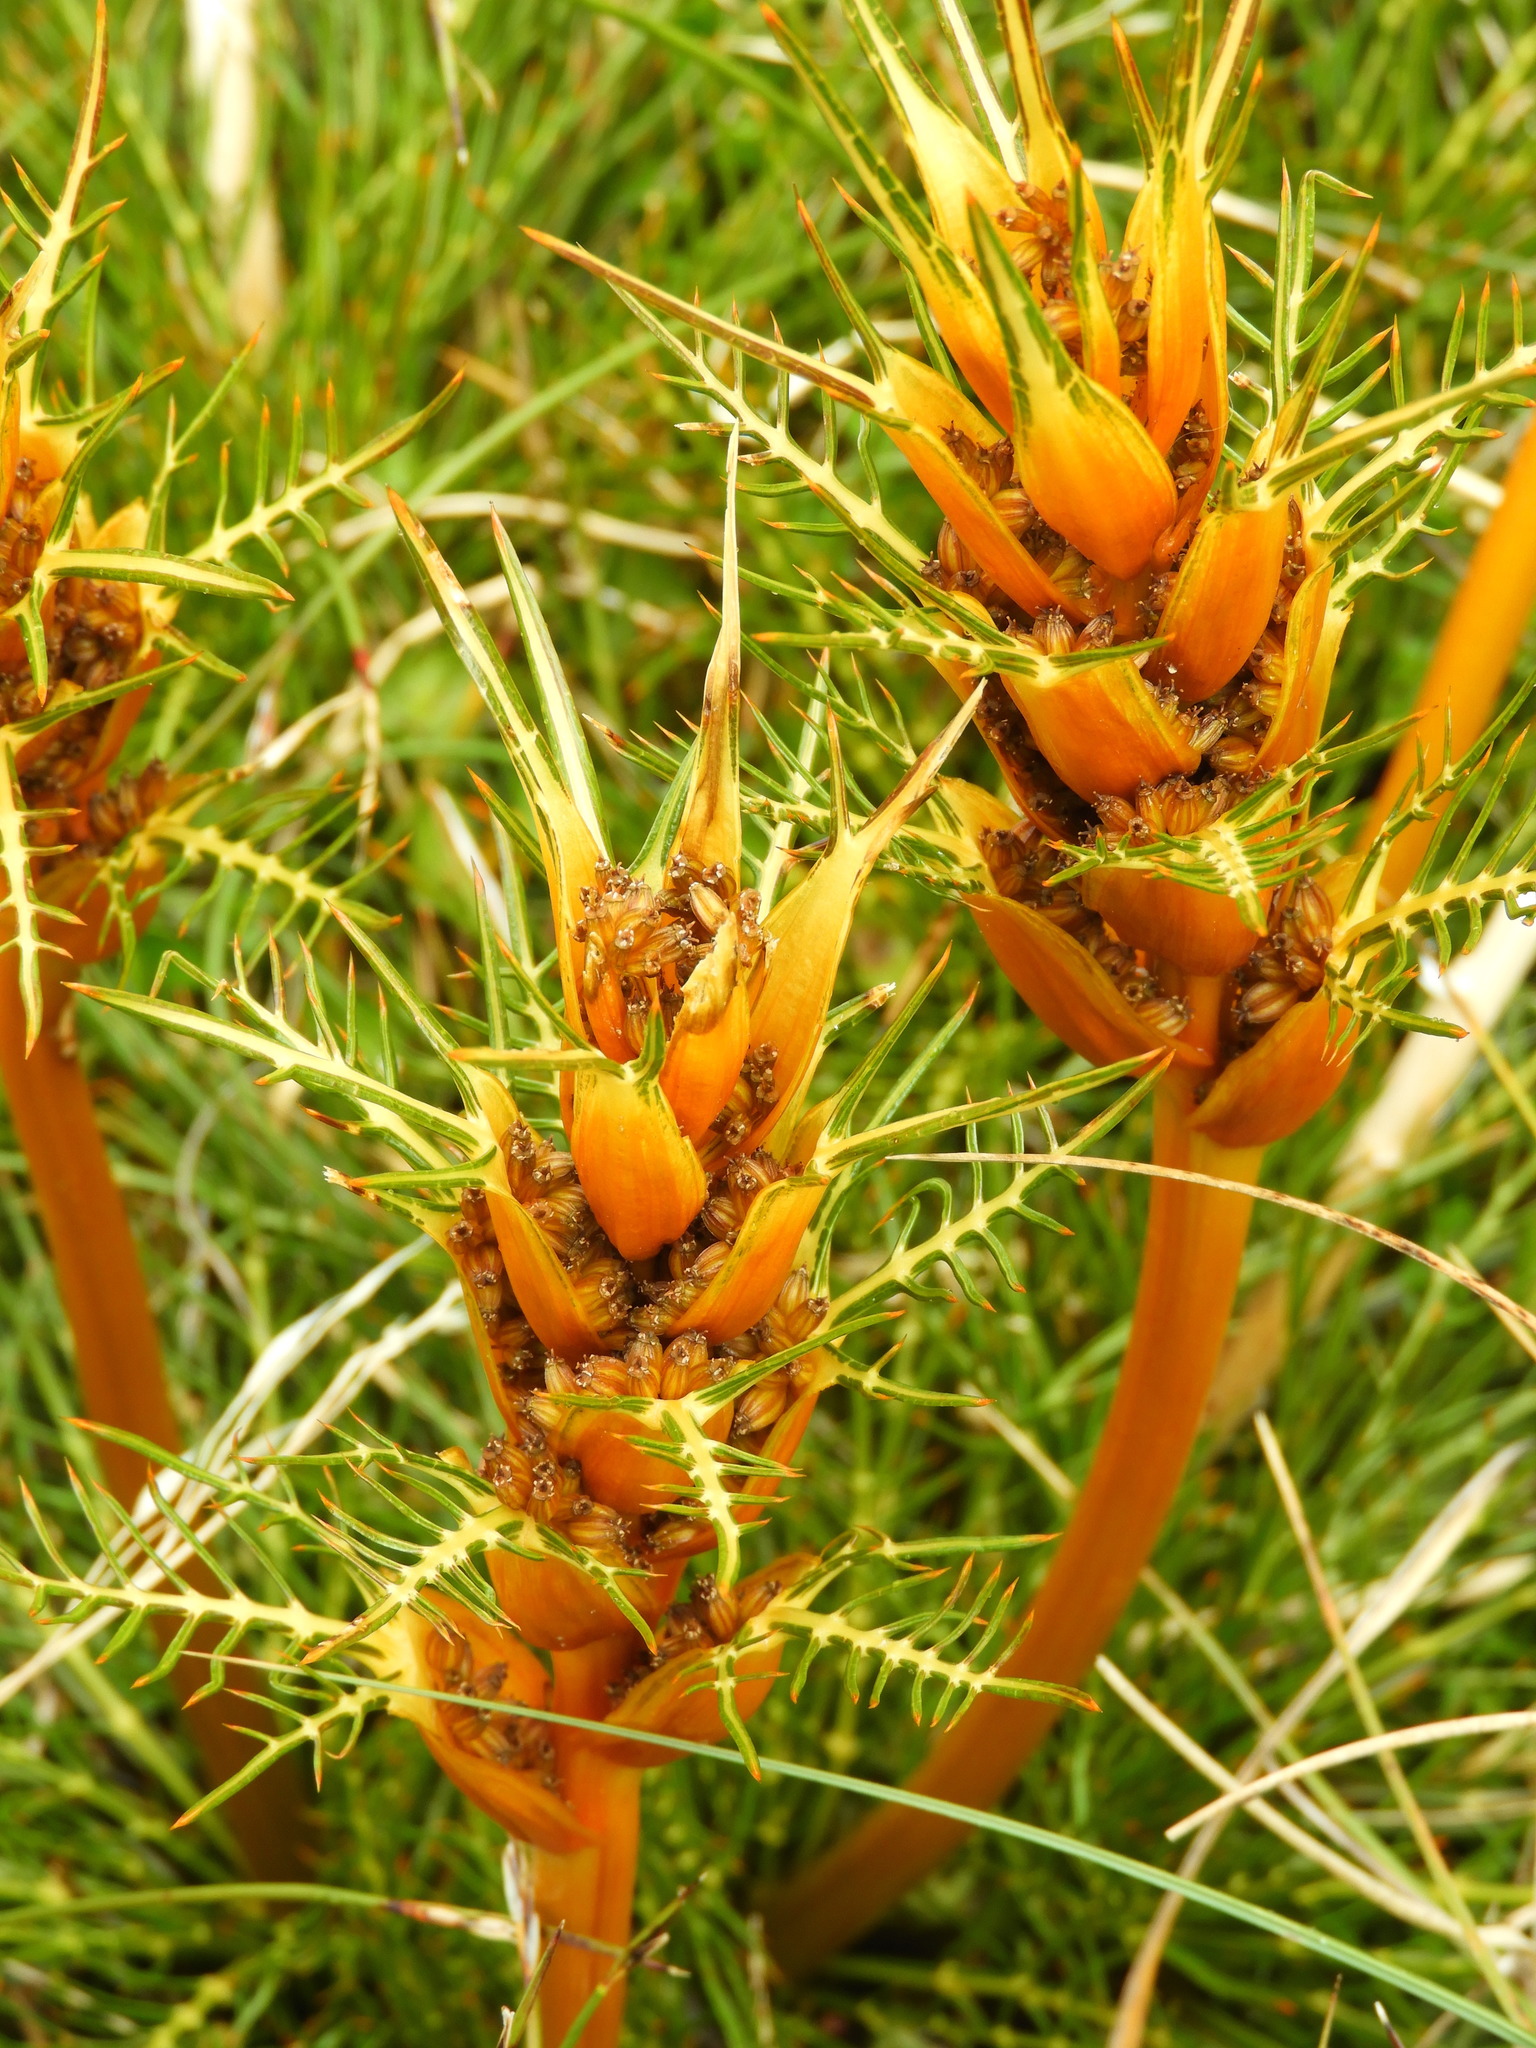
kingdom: Plantae
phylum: Tracheophyta
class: Magnoliopsida
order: Apiales
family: Apiaceae
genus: Aciphylla
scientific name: Aciphylla pinnatifida
